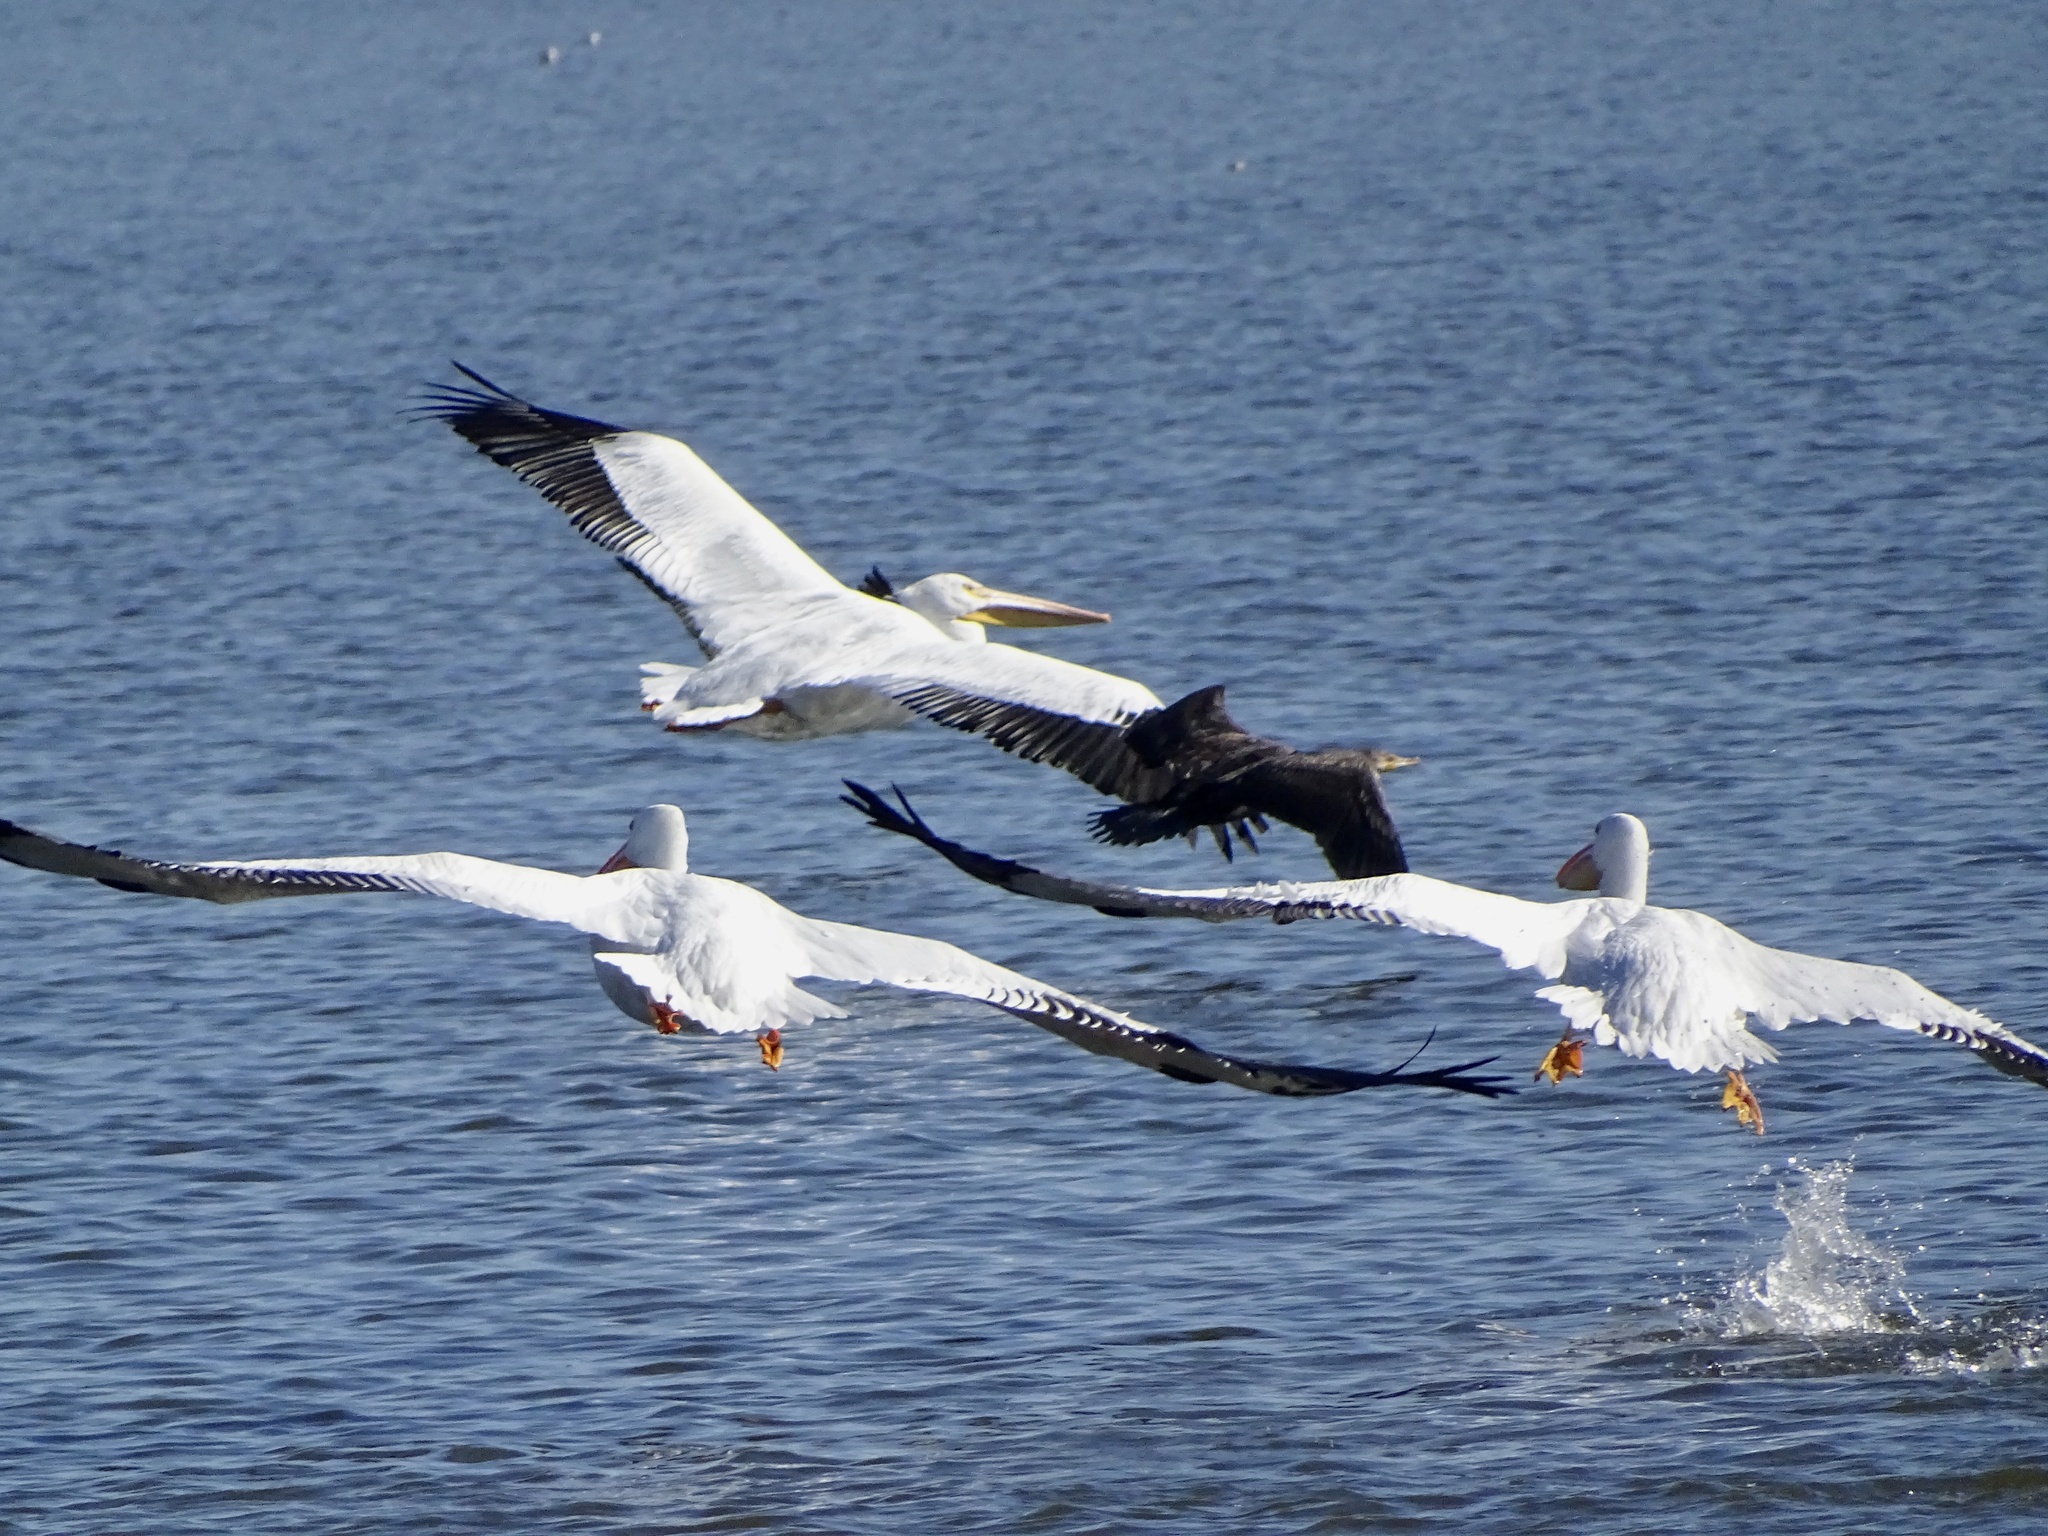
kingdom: Animalia
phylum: Chordata
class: Aves
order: Pelecaniformes
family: Pelecanidae
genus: Pelecanus
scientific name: Pelecanus erythrorhynchos
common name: American white pelican
